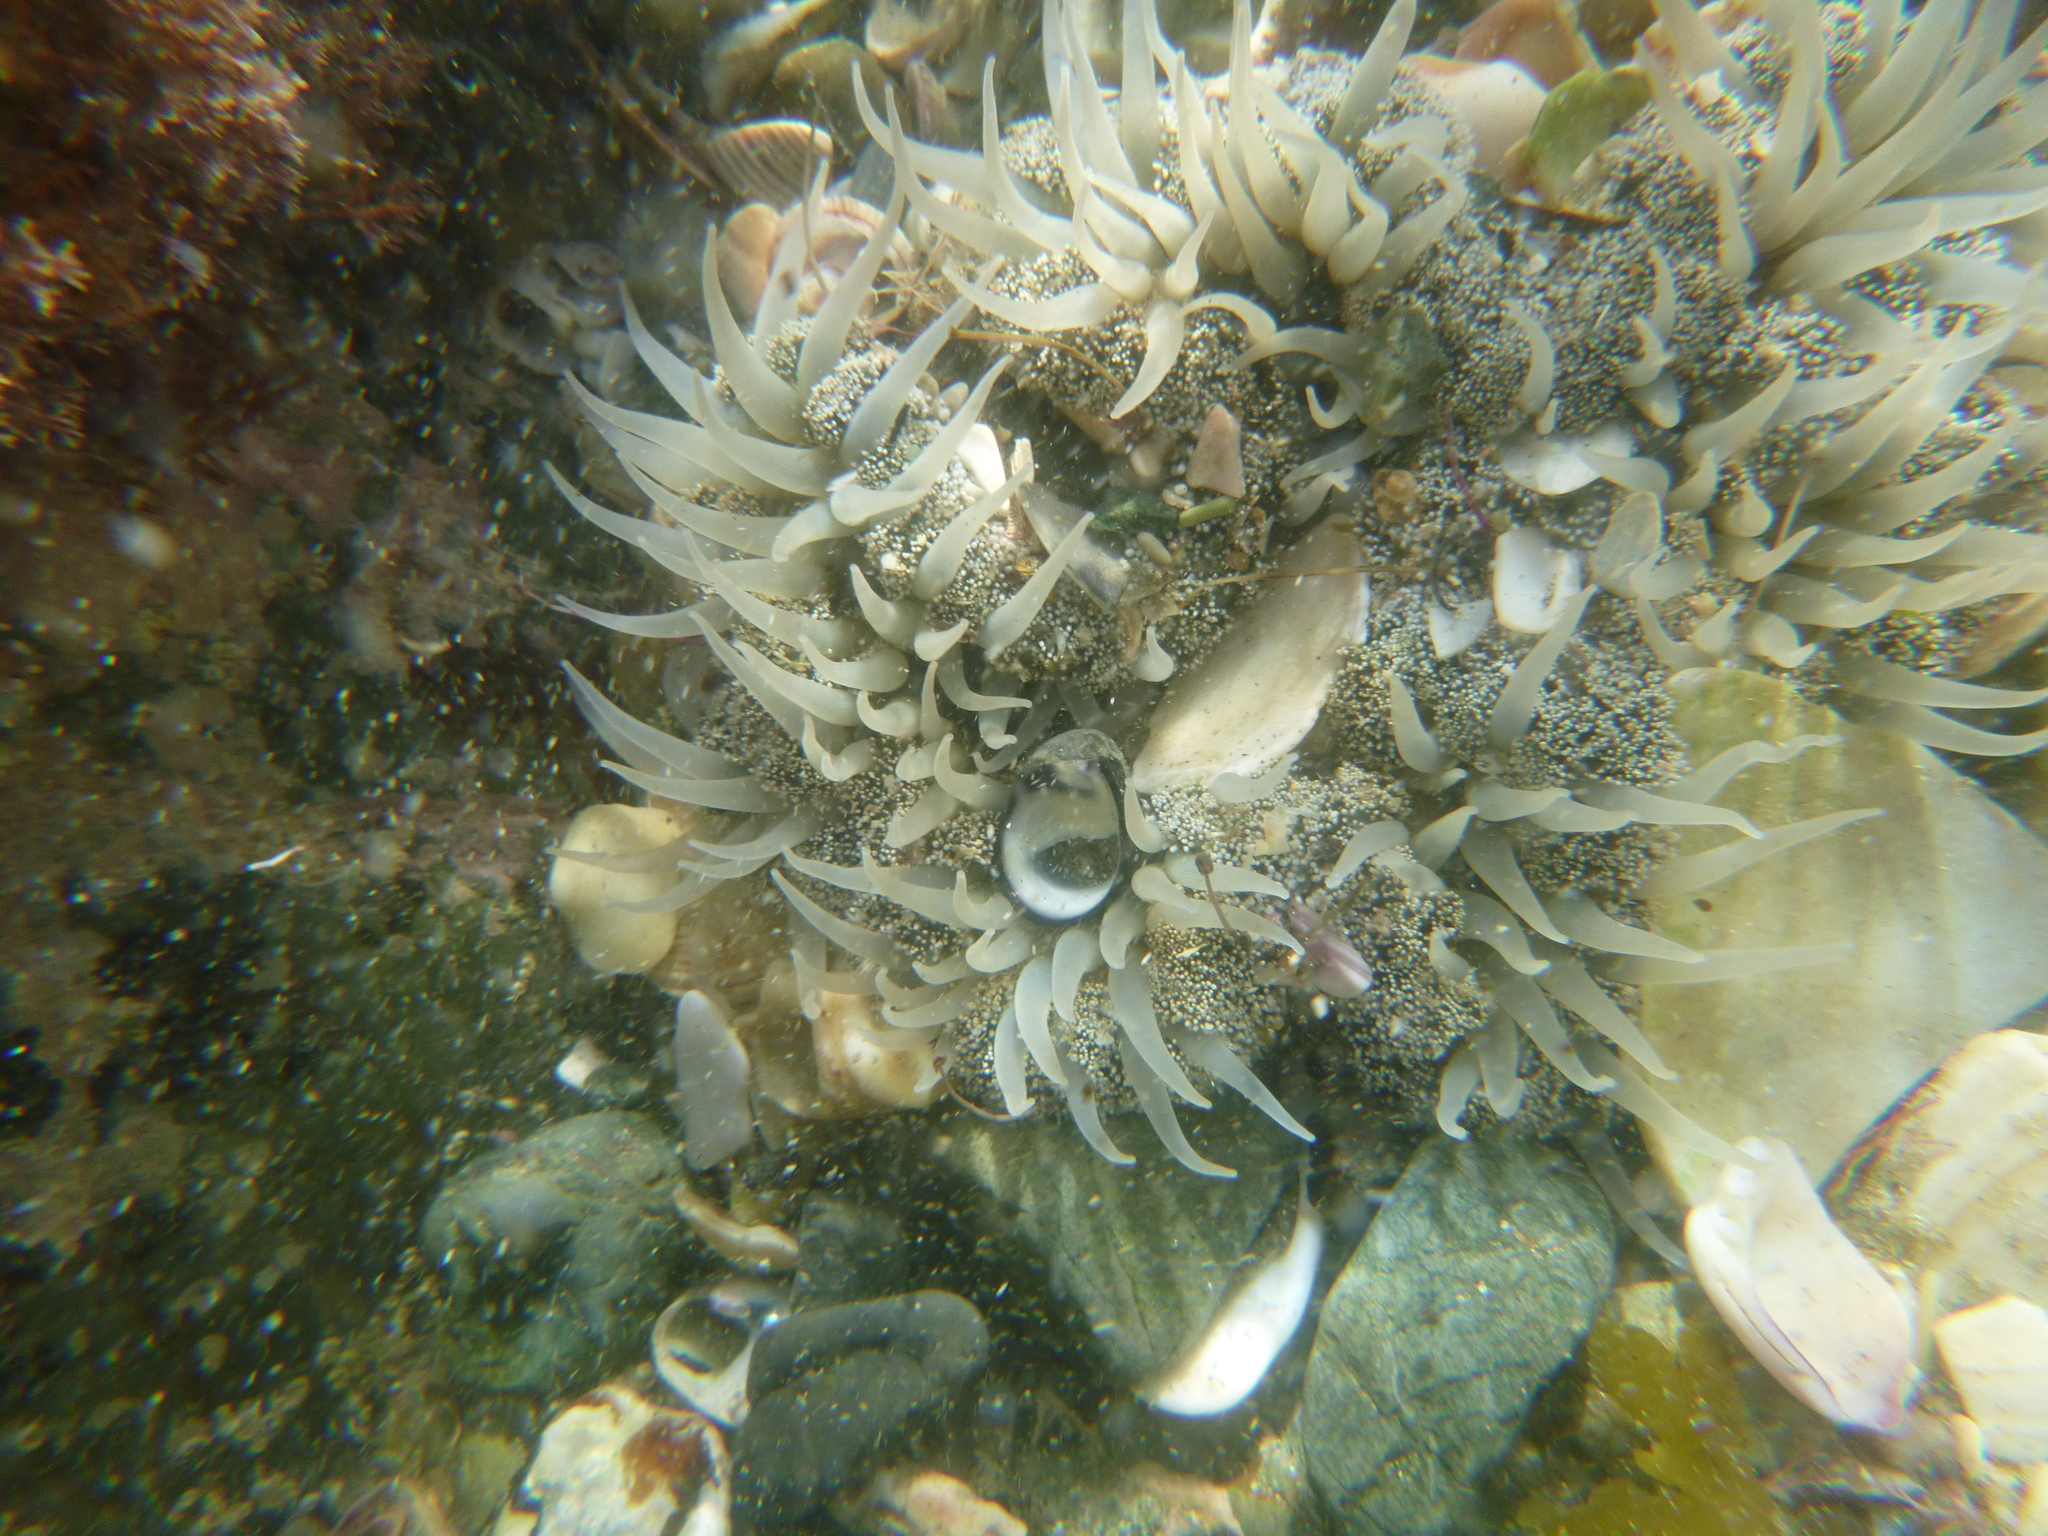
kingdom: Animalia
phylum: Cnidaria
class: Anthozoa
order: Actiniaria
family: Actiniidae
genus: Oulactis
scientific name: Oulactis magna
